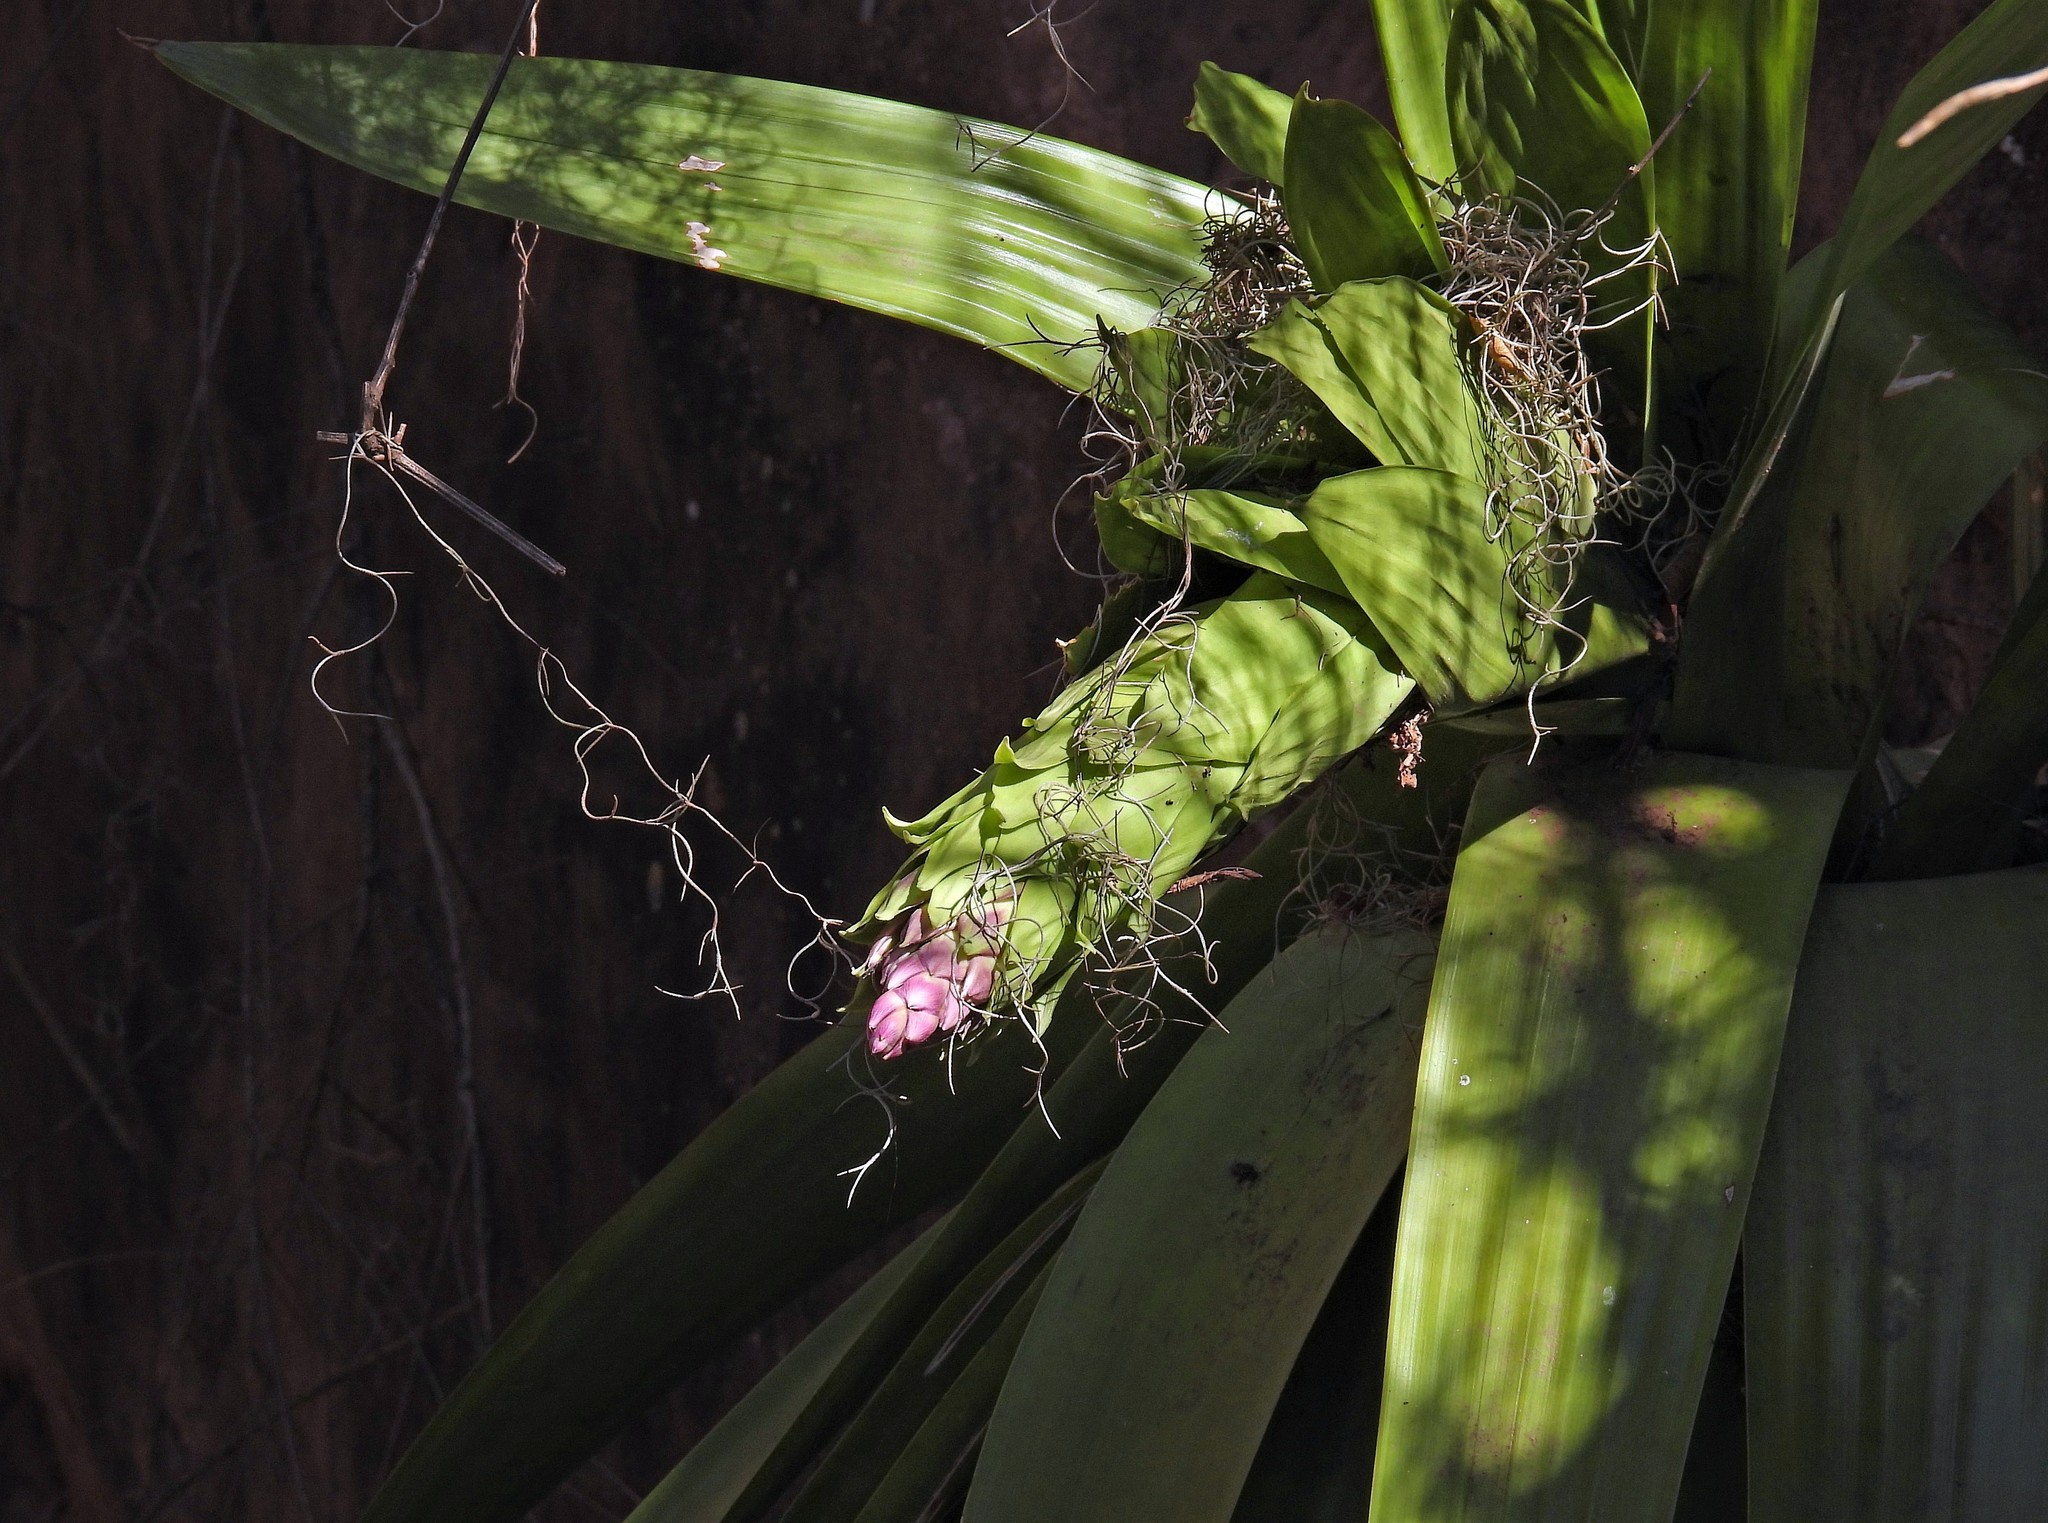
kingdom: Plantae
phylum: Tracheophyta
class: Liliopsida
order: Poales
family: Bromeliaceae
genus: Tillandsia
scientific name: Tillandsia australis
